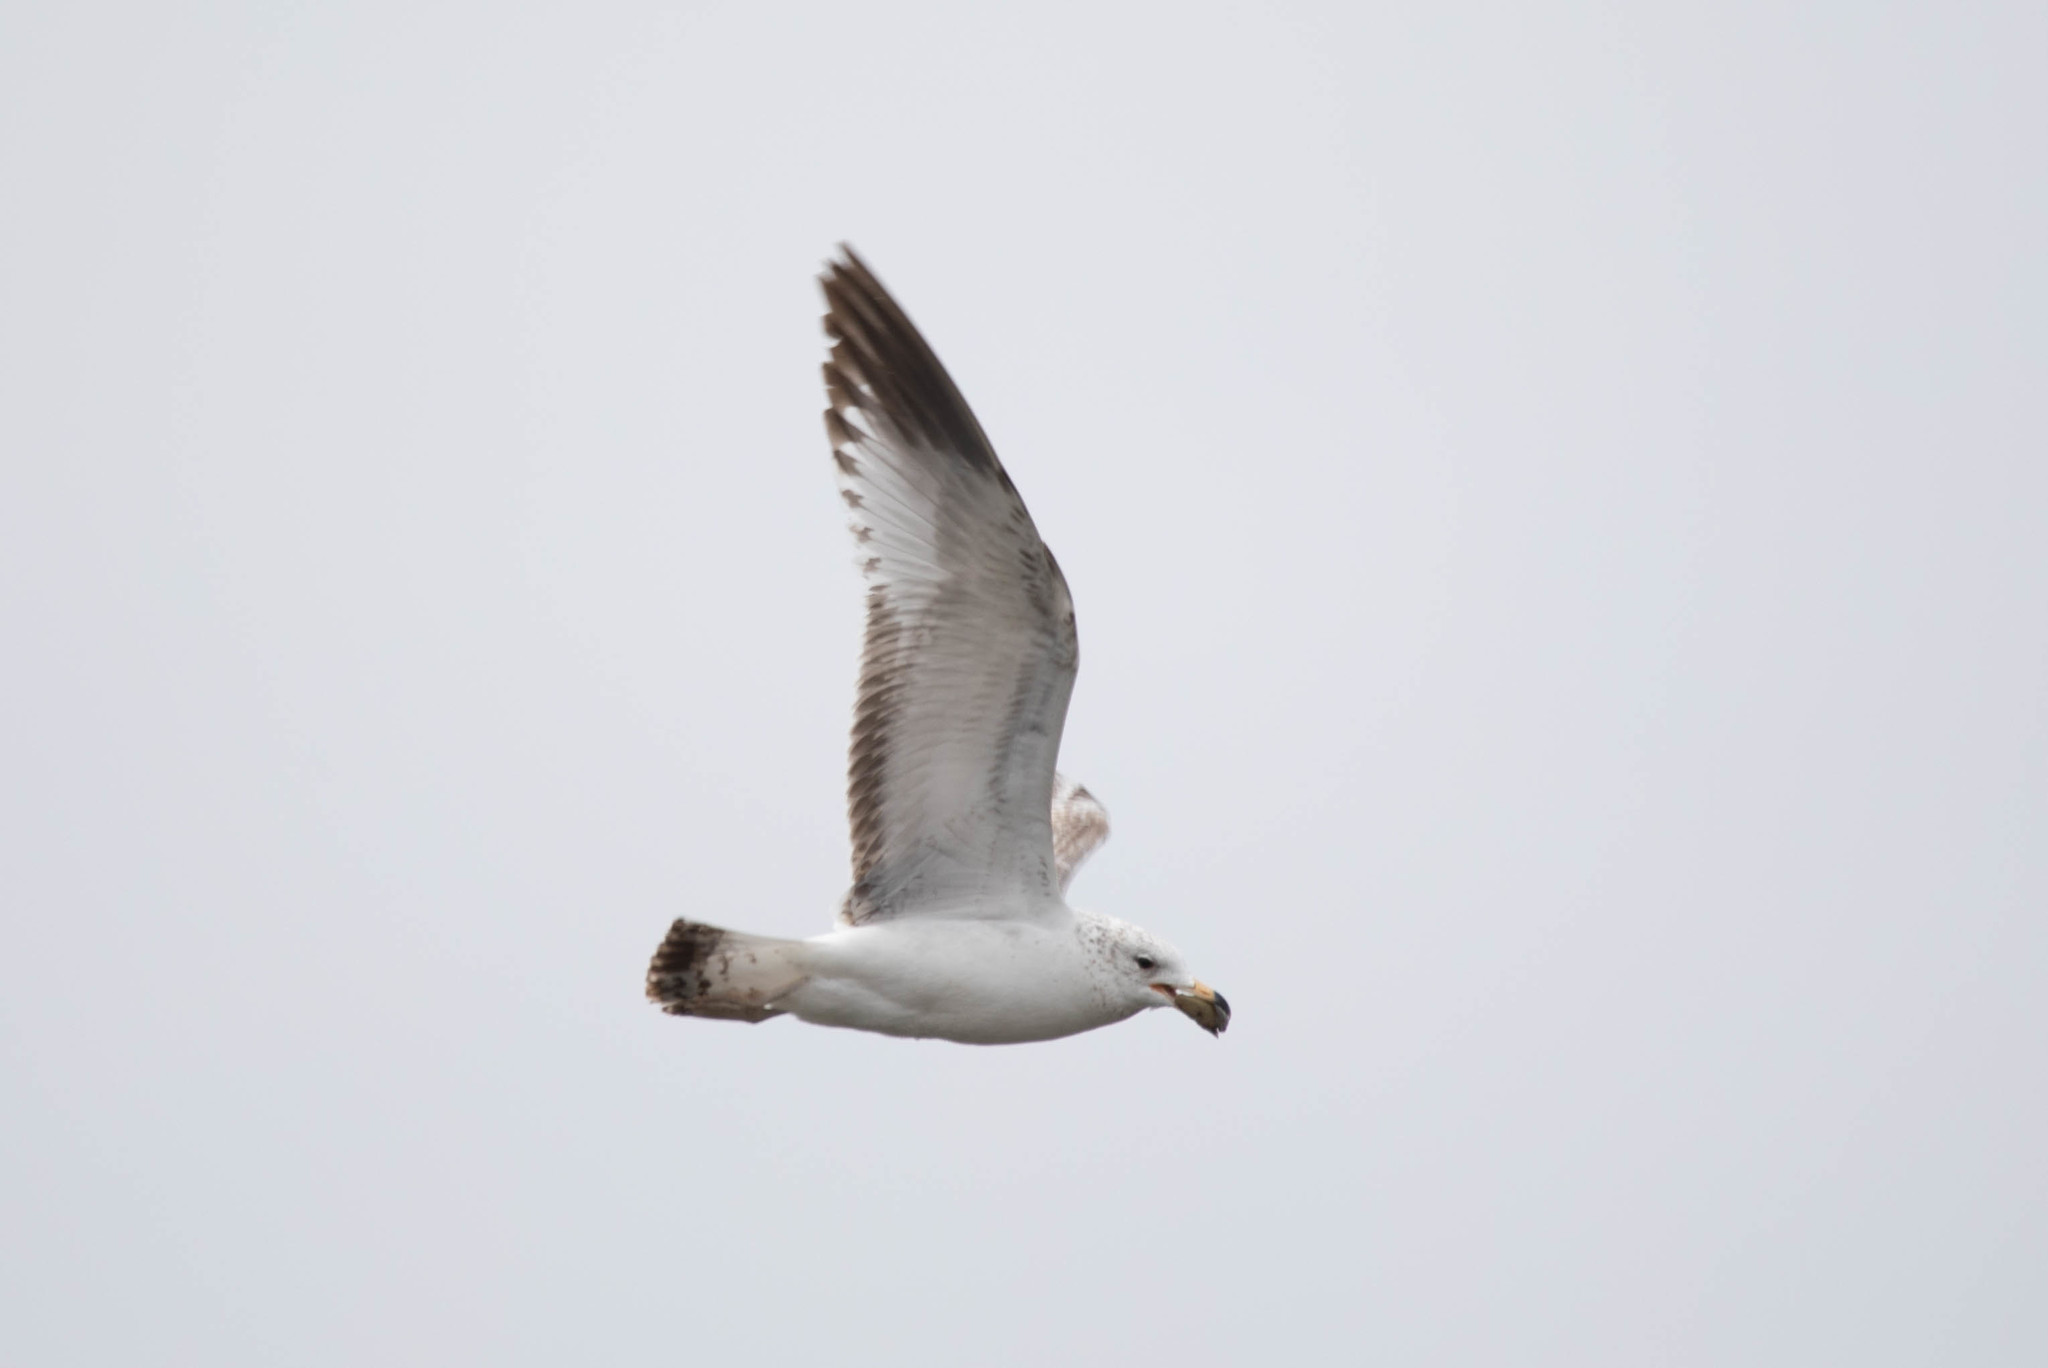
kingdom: Animalia
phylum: Chordata
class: Aves
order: Charadriiformes
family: Laridae
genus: Larus
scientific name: Larus delawarensis
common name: Ring-billed gull
